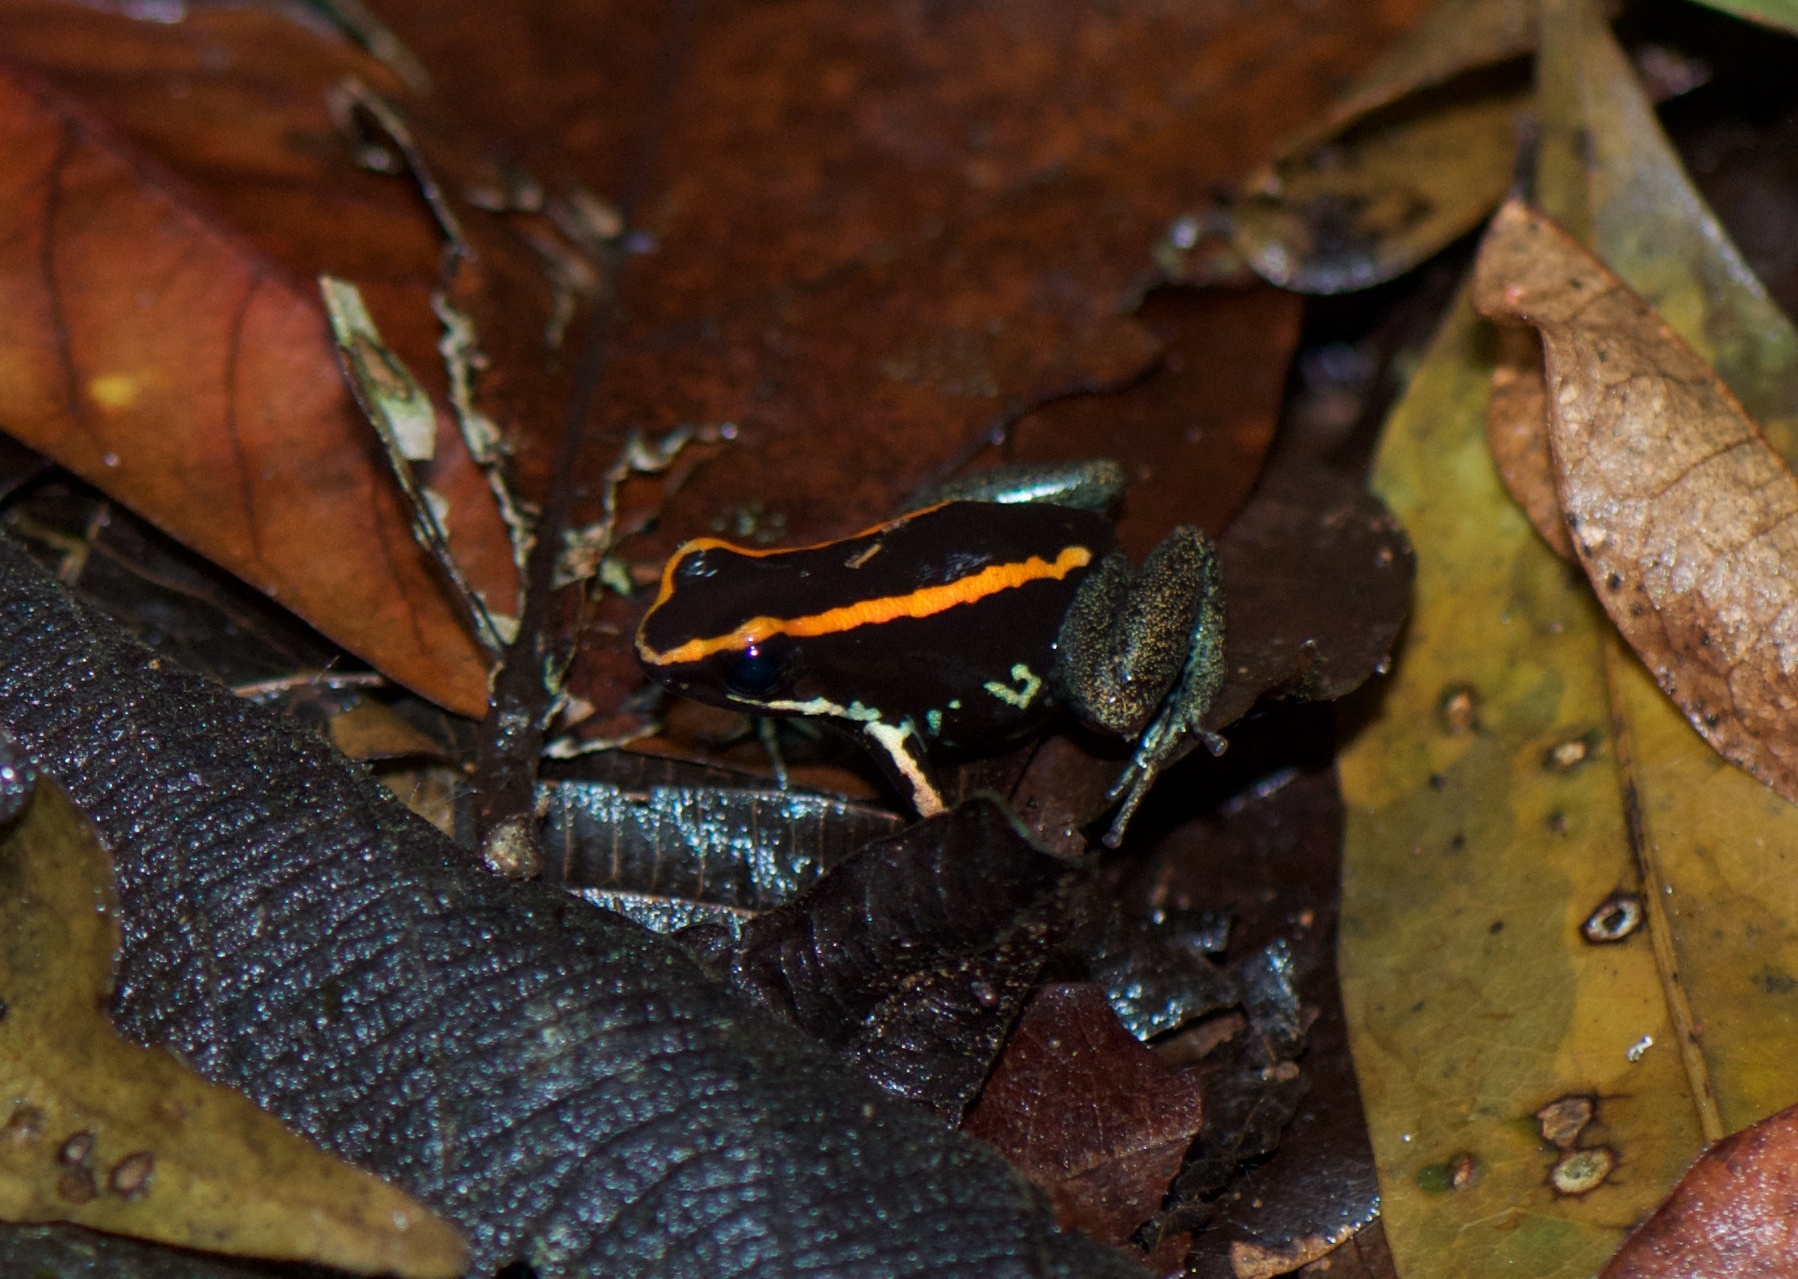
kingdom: Animalia
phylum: Chordata
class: Amphibia
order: Anura
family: Dendrobatidae
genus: Phyllobates
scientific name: Phyllobates vittatus
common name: Golfodulcean poison frog
